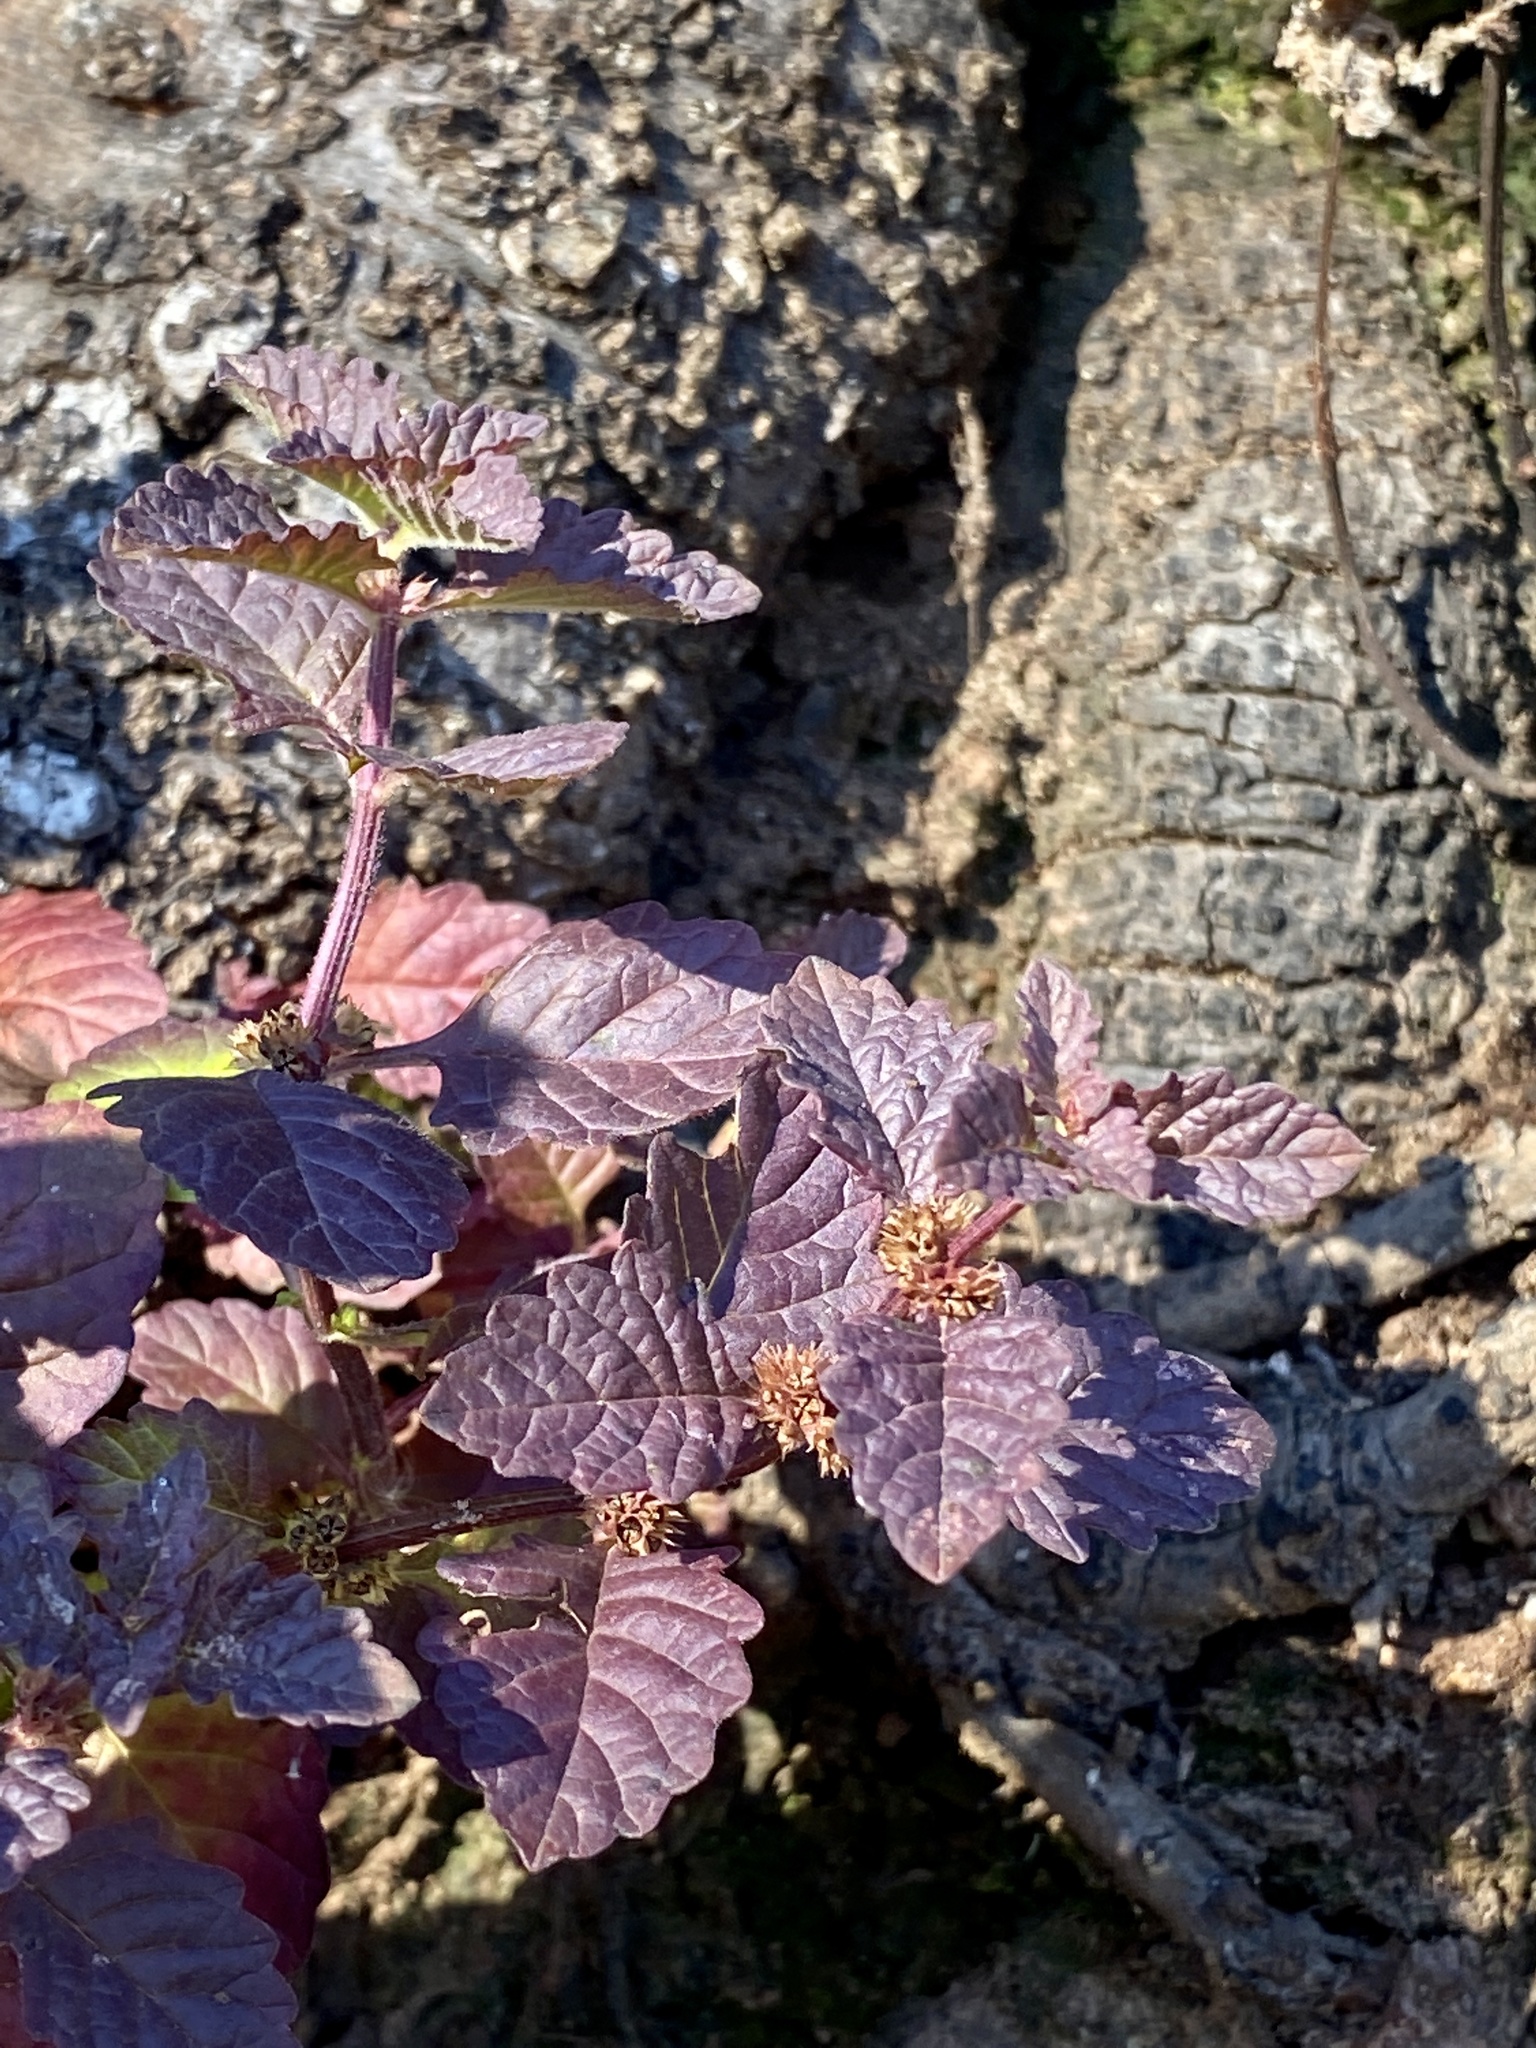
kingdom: Plantae
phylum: Tracheophyta
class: Magnoliopsida
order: Lamiales
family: Lamiaceae
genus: Lycopus
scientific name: Lycopus europaeus
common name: European bugleweed
